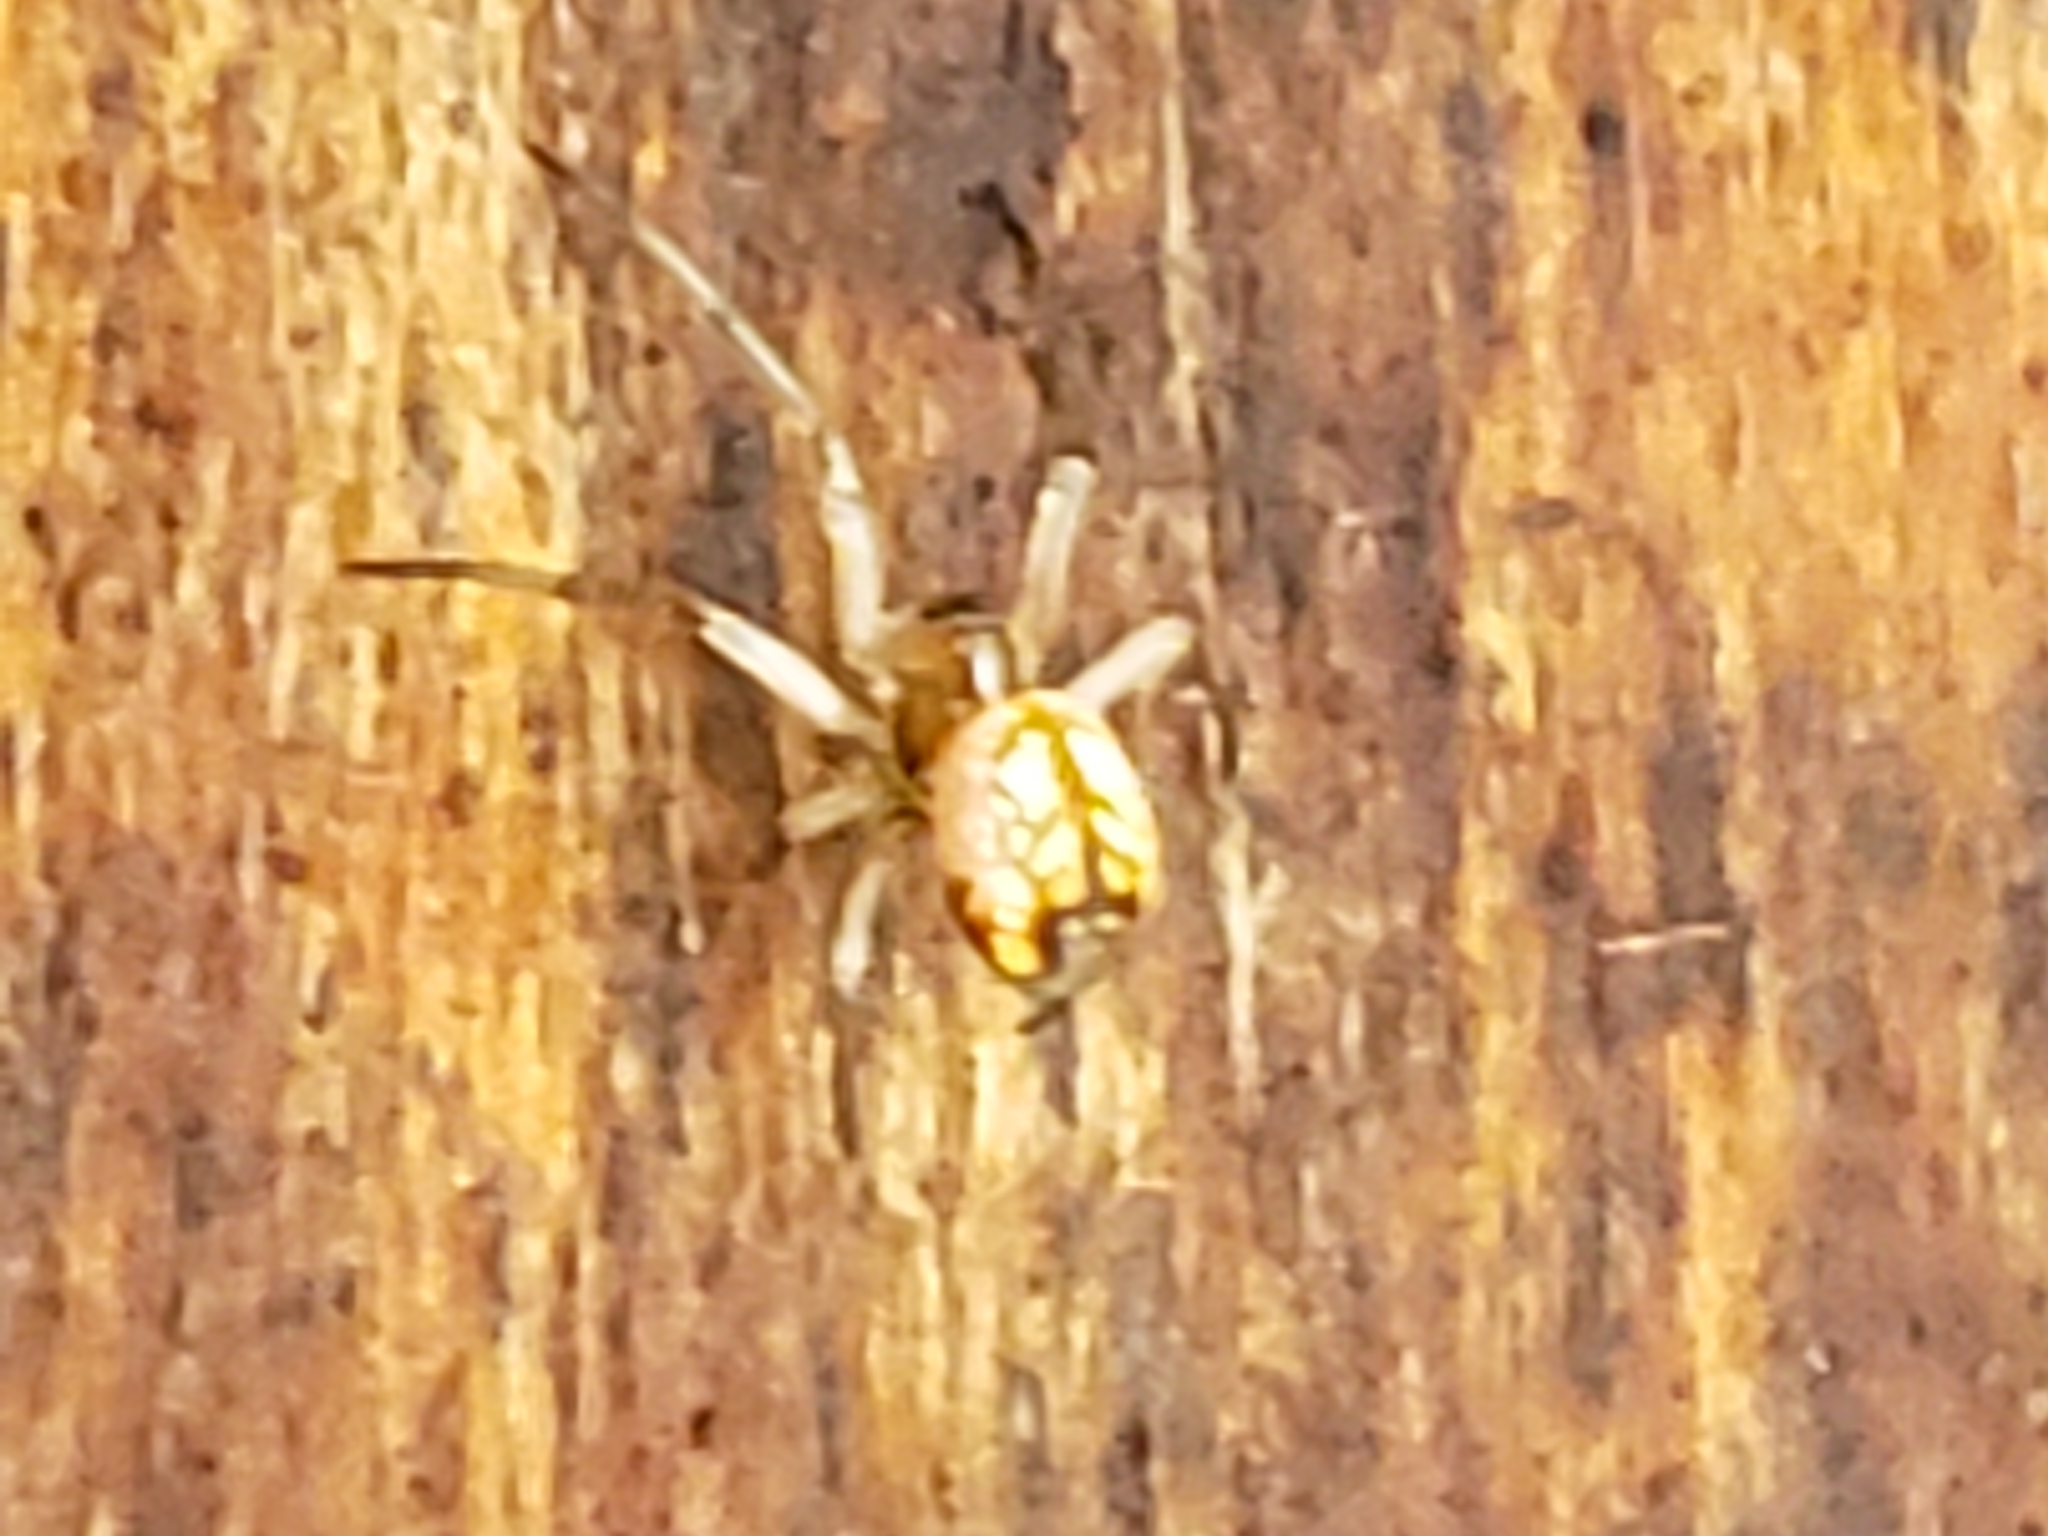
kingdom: Animalia
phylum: Arthropoda
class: Arachnida
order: Araneae
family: Tetragnathidae
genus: Leucauge
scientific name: Leucauge venusta
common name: Longjawed orb weavers
